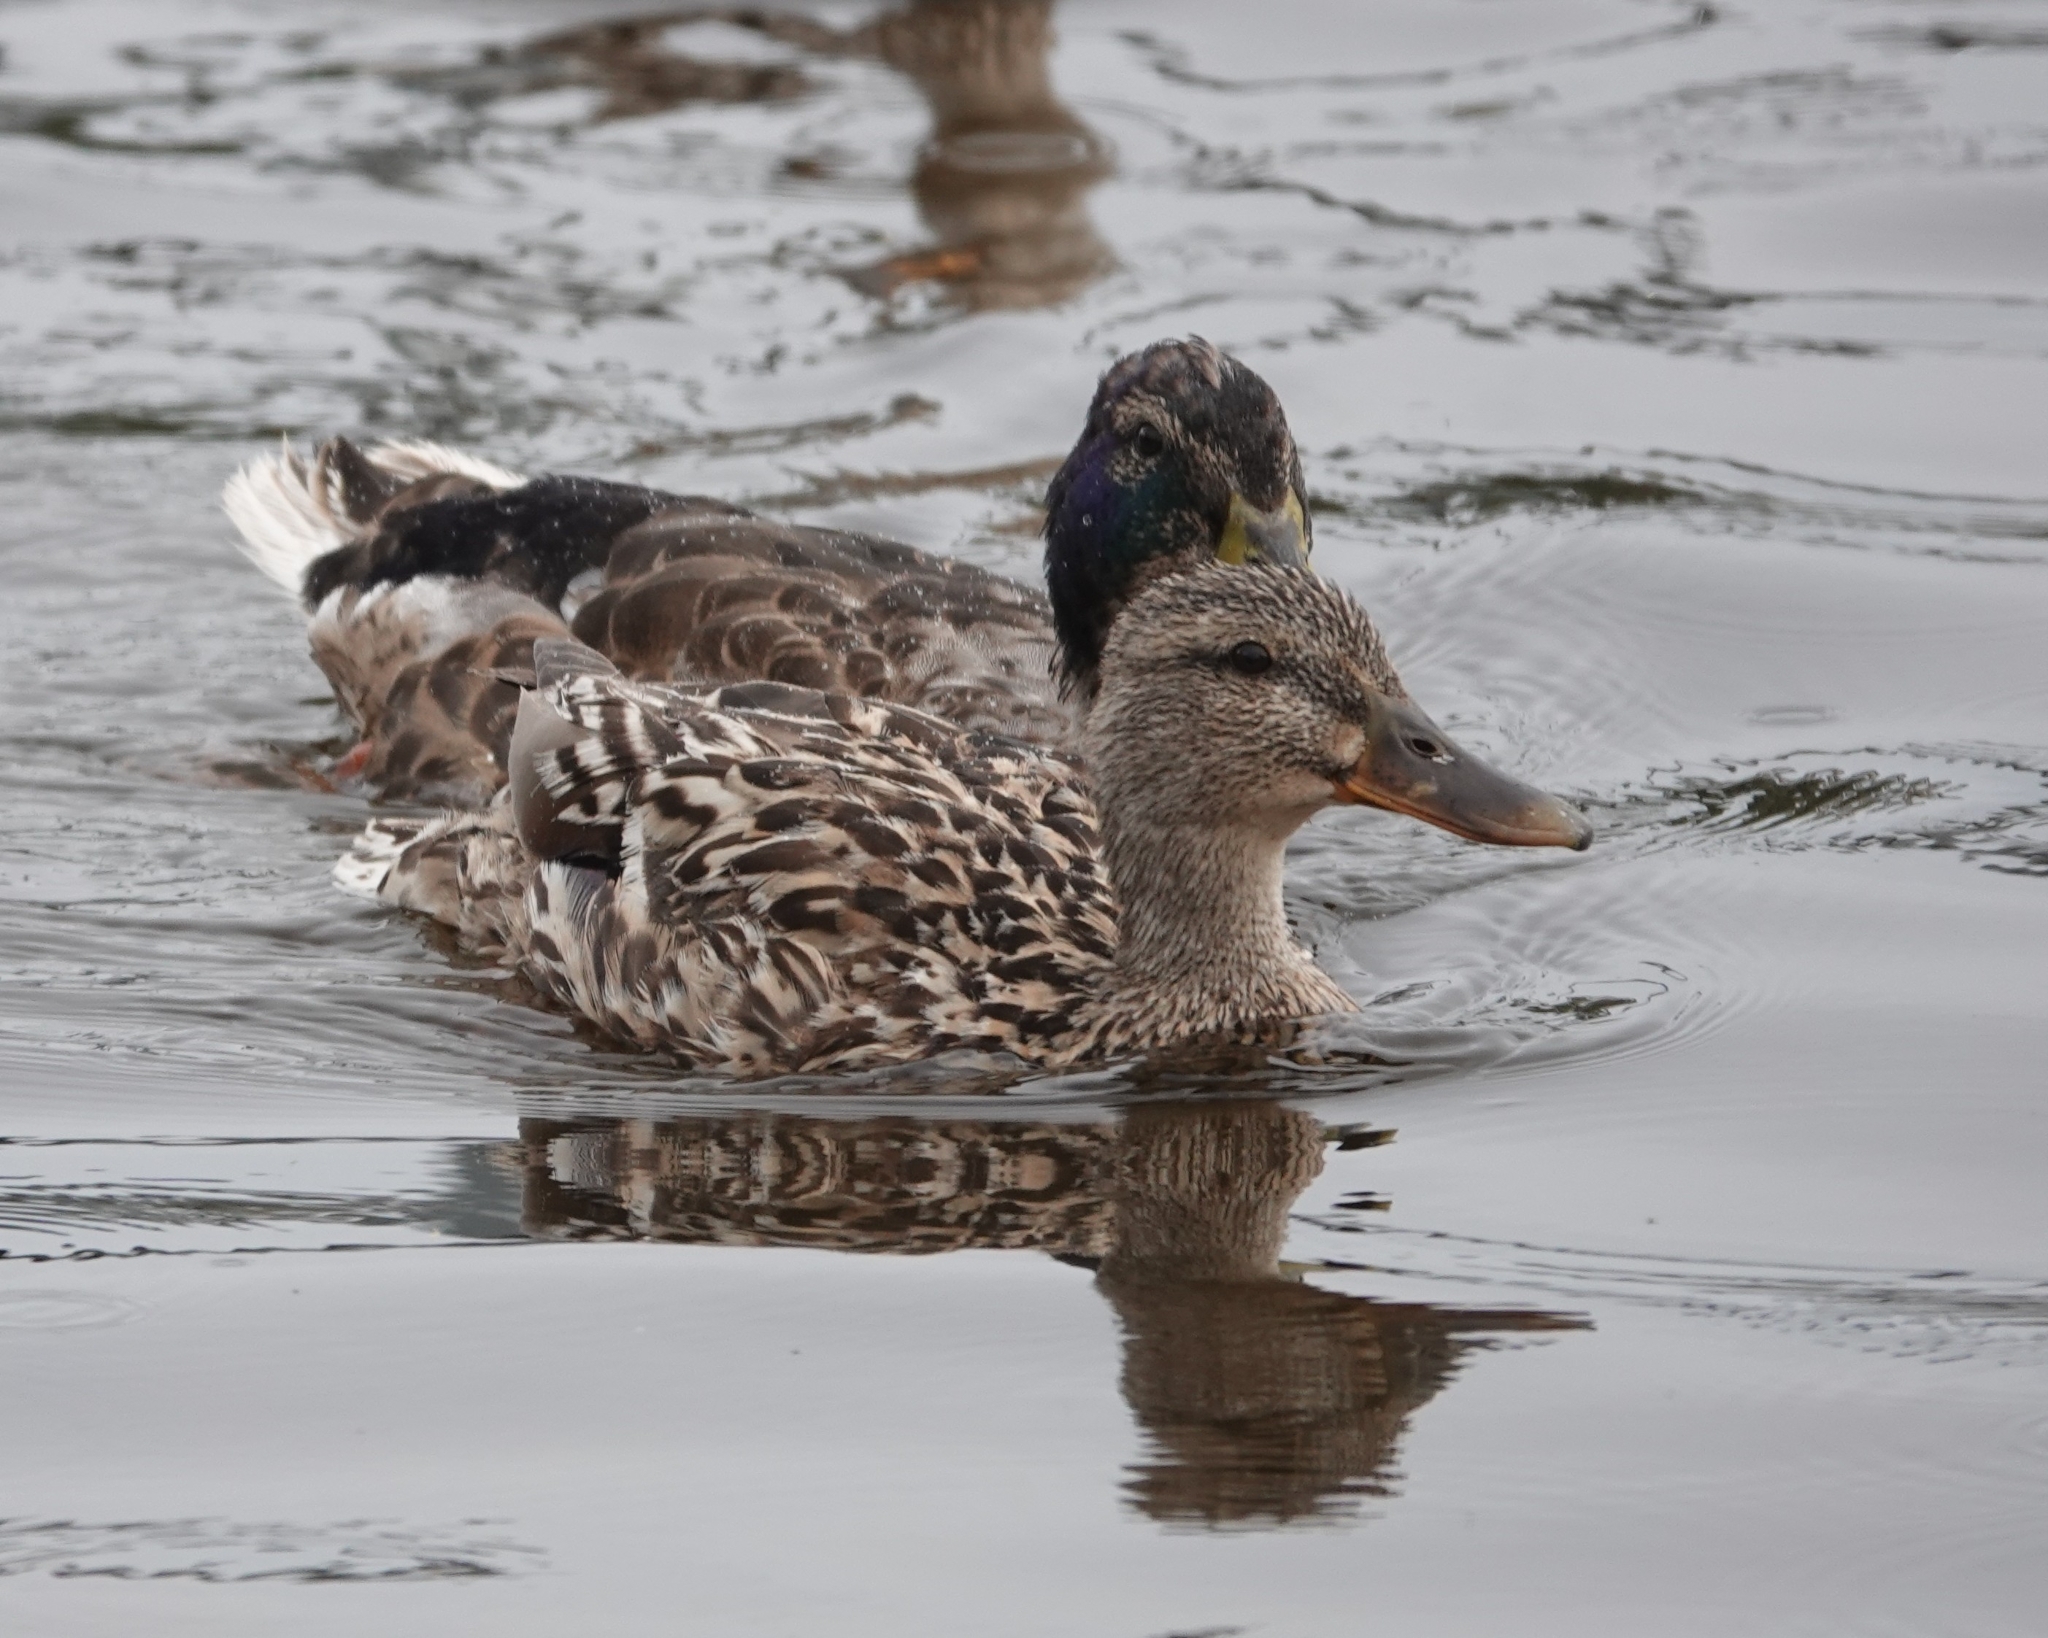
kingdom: Animalia
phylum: Chordata
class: Aves
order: Anseriformes
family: Anatidae
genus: Anas
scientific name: Anas platyrhynchos
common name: Mallard
